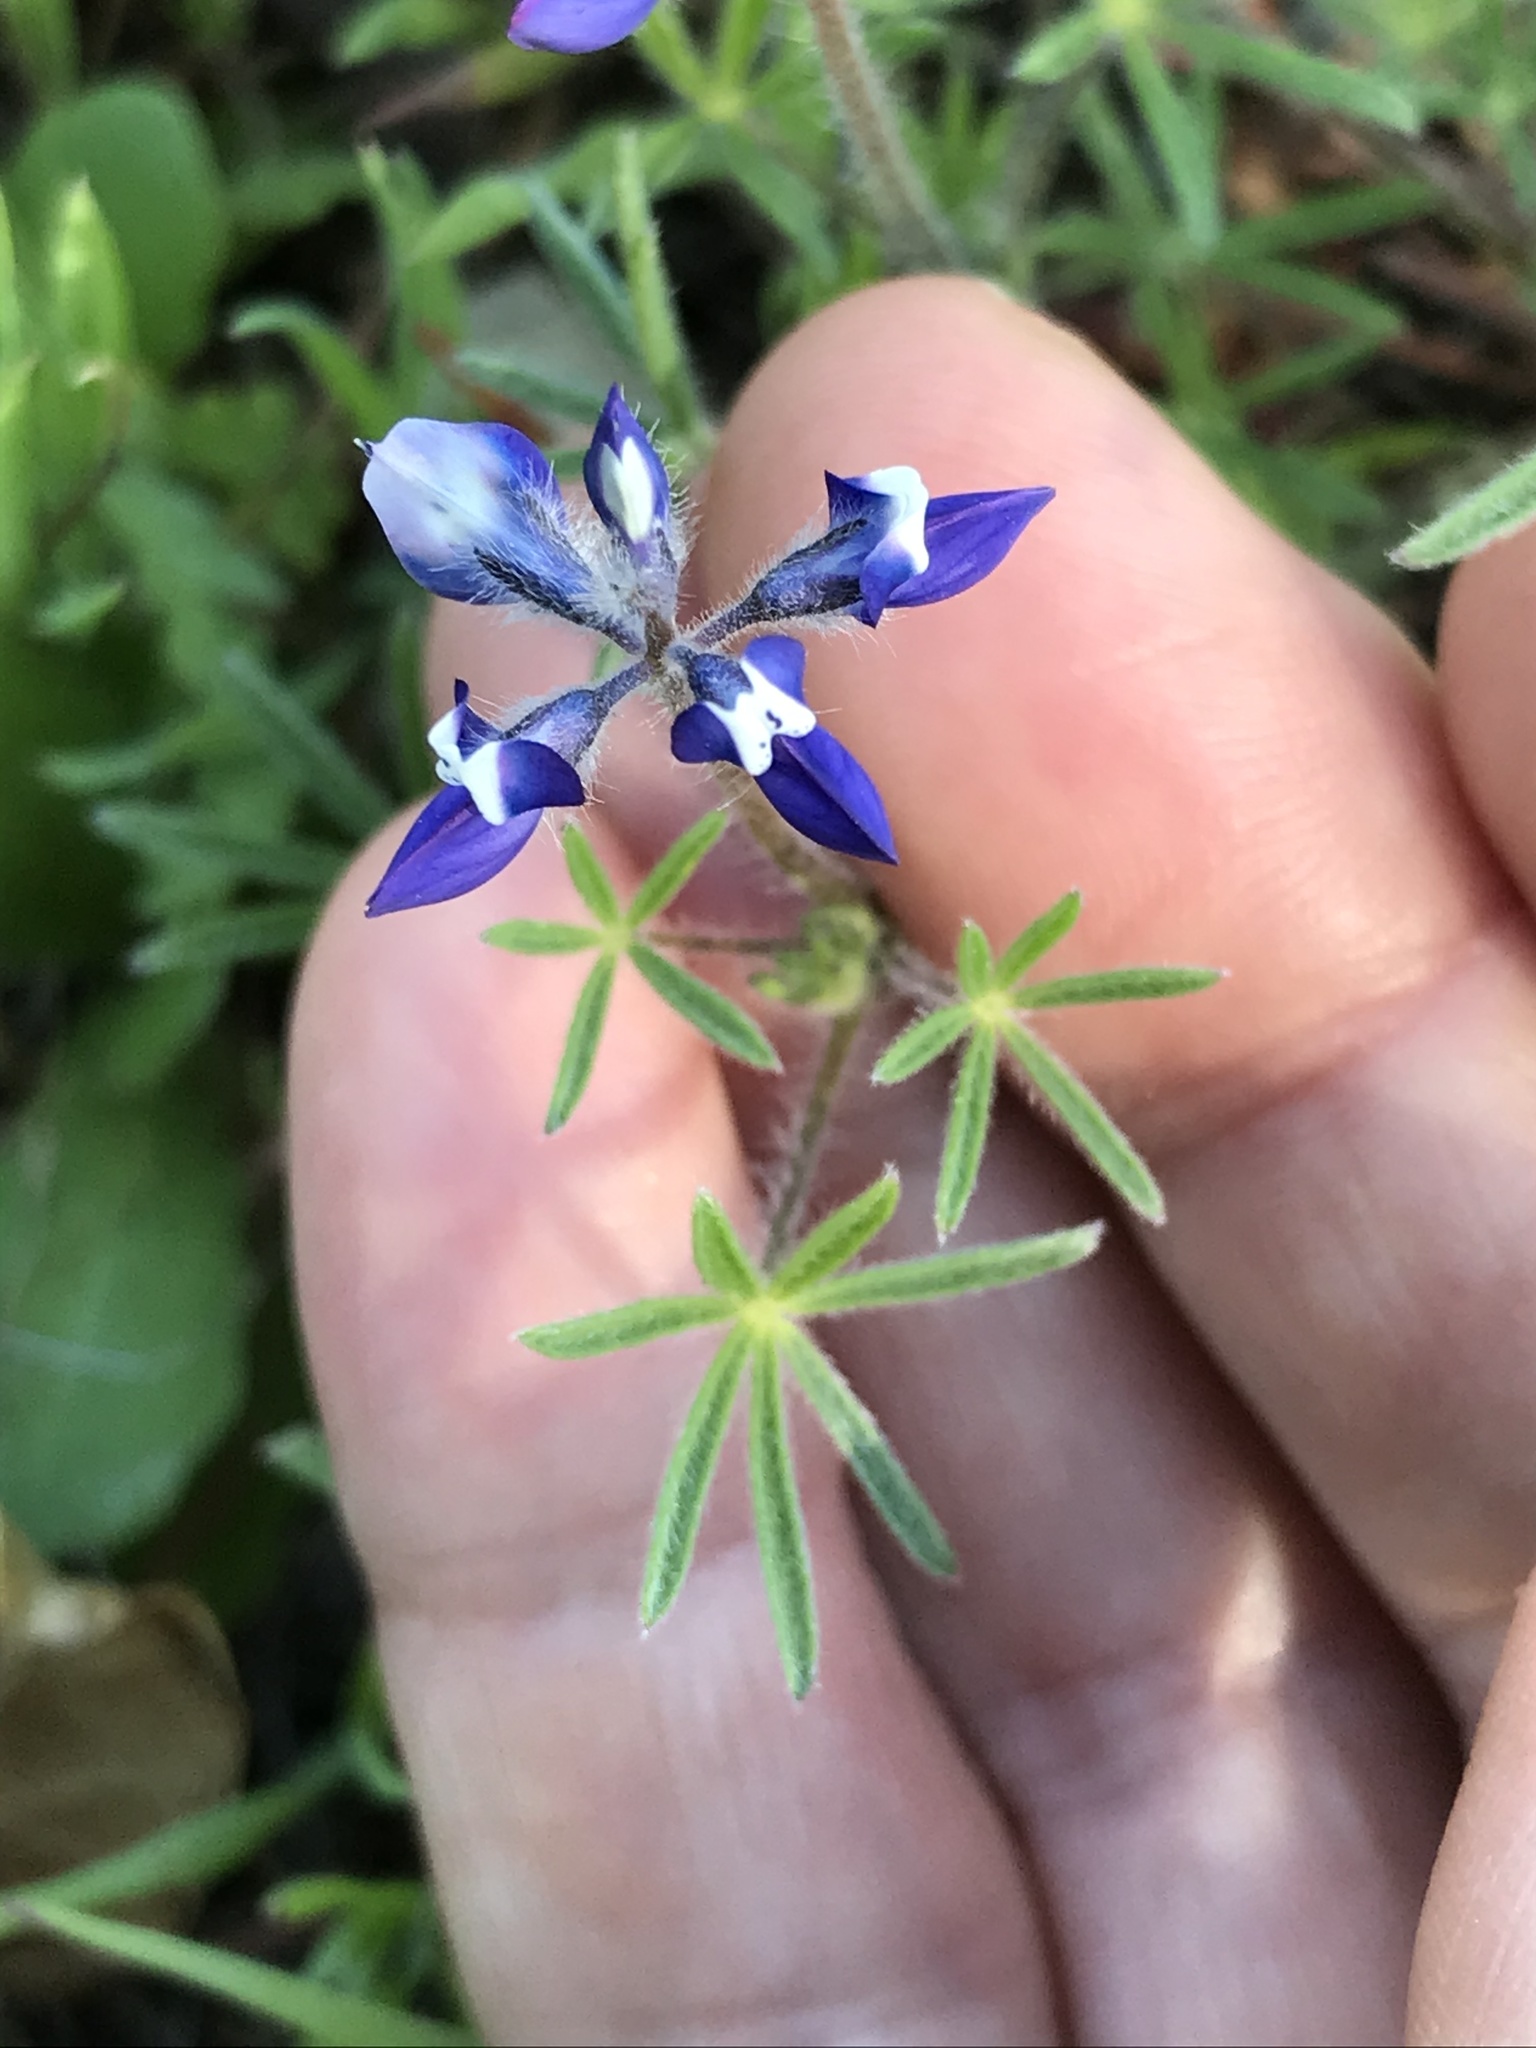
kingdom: Plantae
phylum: Tracheophyta
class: Magnoliopsida
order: Fabales
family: Fabaceae
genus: Lupinus
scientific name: Lupinus bicolor
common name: Miniature lupine
